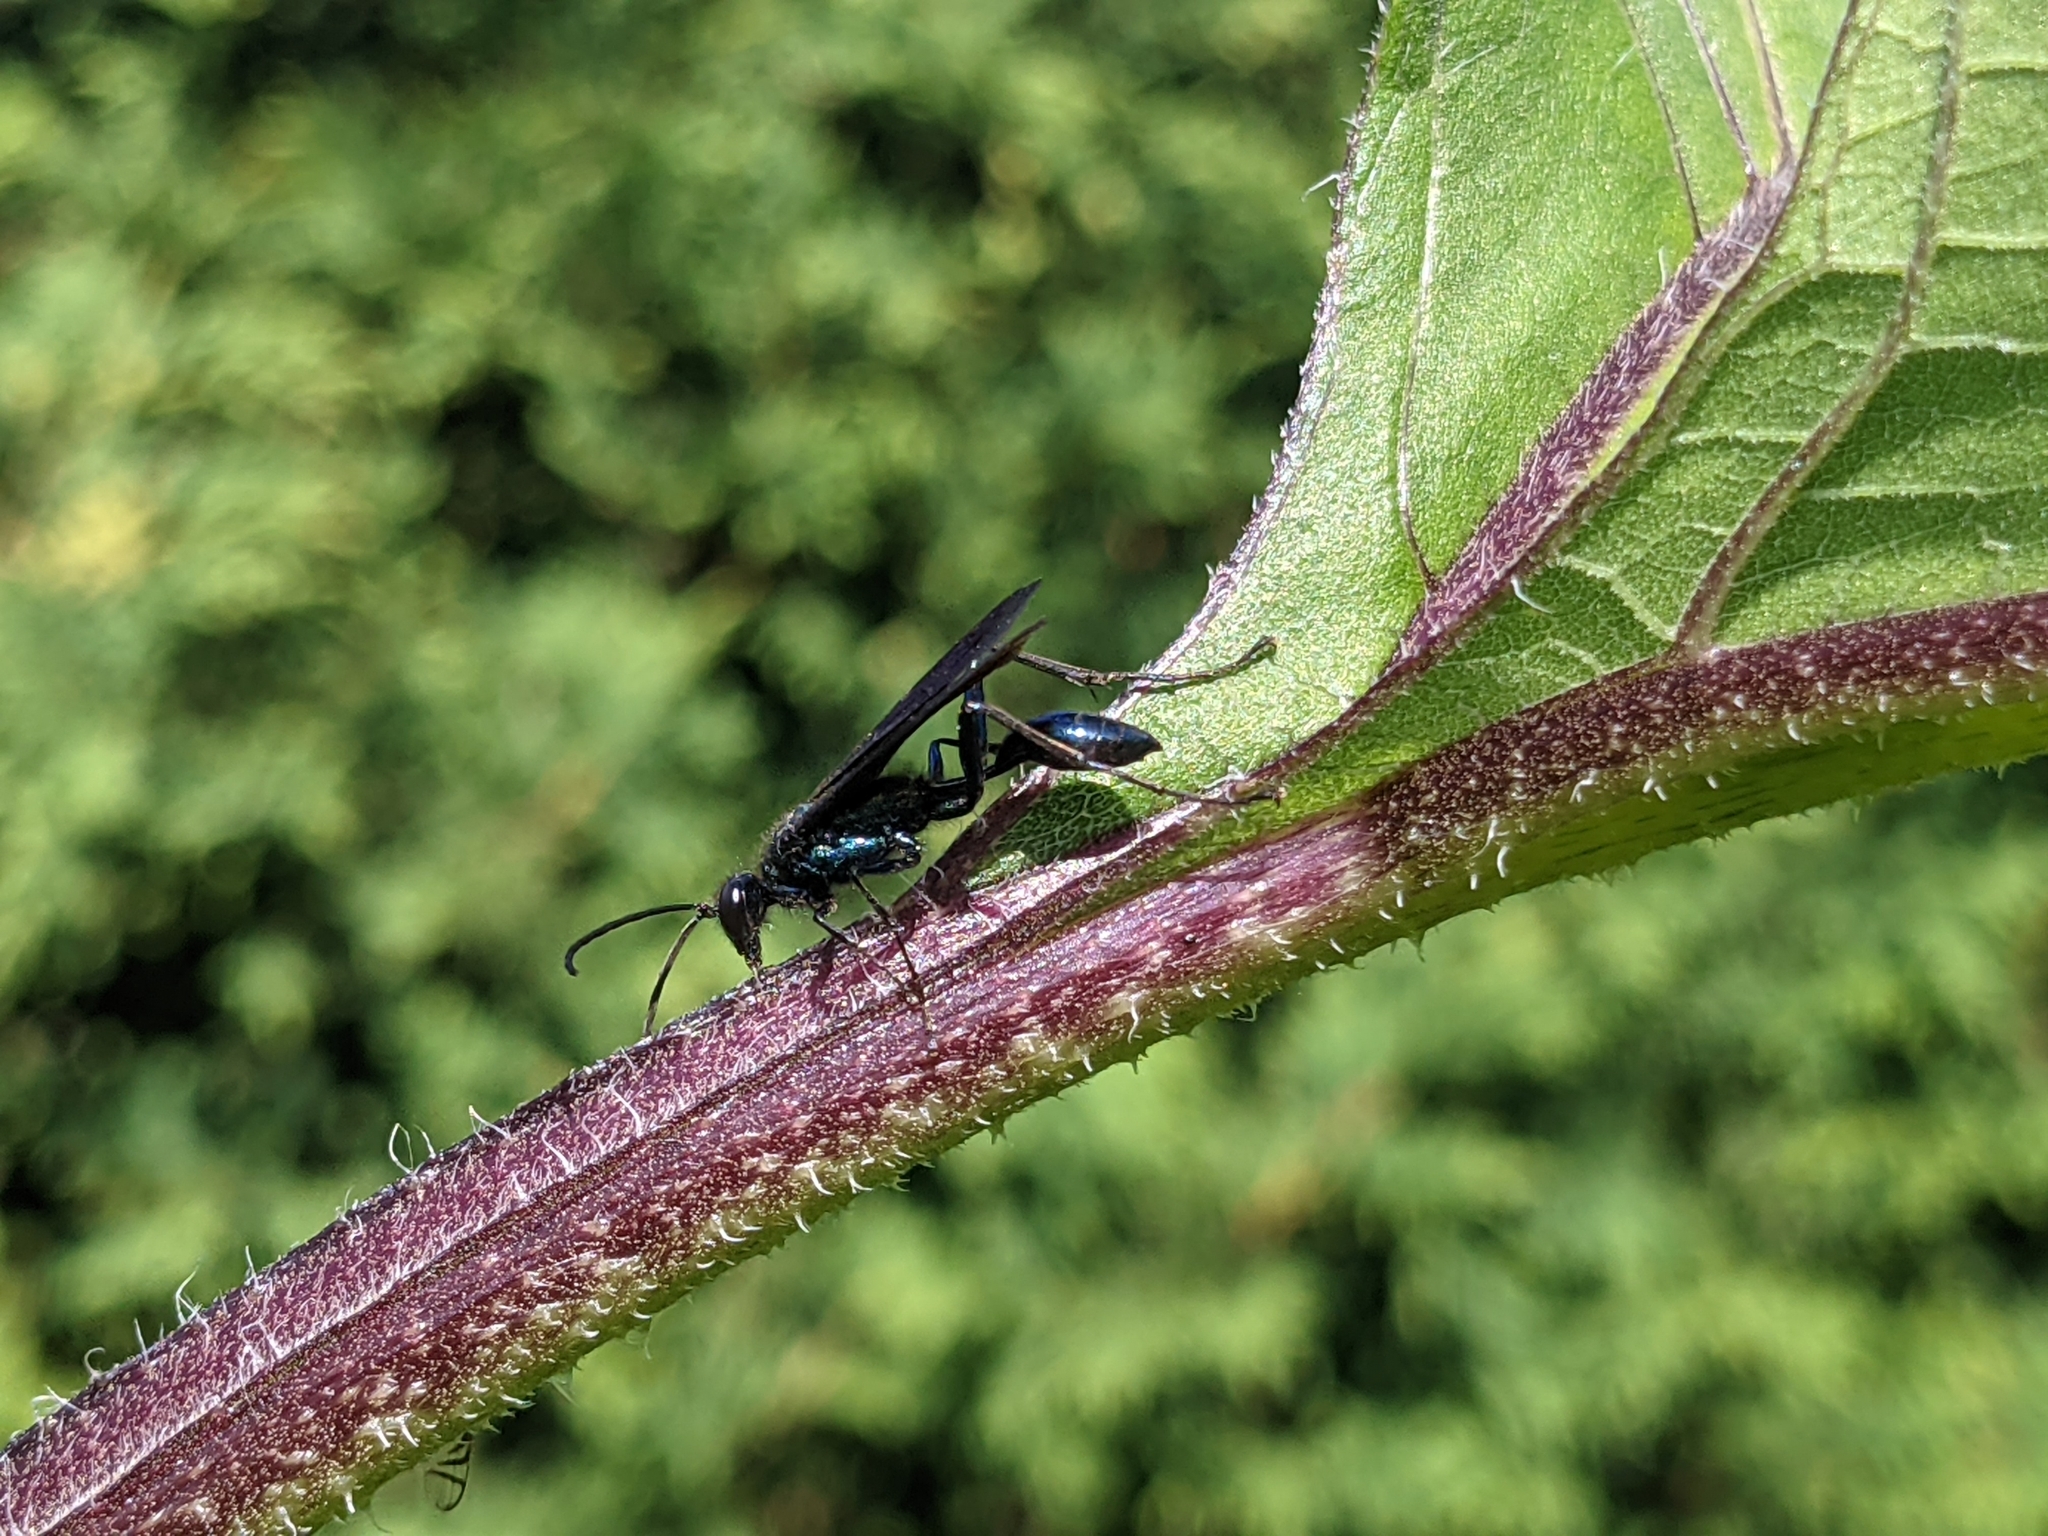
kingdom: Animalia
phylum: Arthropoda
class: Insecta
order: Hymenoptera
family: Sphecidae
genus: Chalybion
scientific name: Chalybion californicum
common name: Mud dauber
